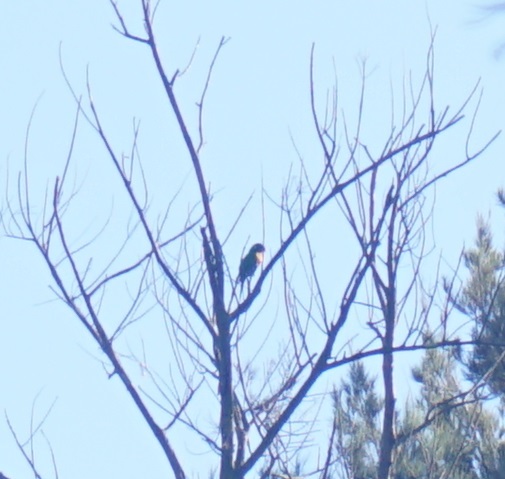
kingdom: Animalia
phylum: Chordata
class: Aves
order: Psittaciformes
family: Psittacidae
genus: Trichoglossus
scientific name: Trichoglossus haematodus
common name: Coconut lorikeet
